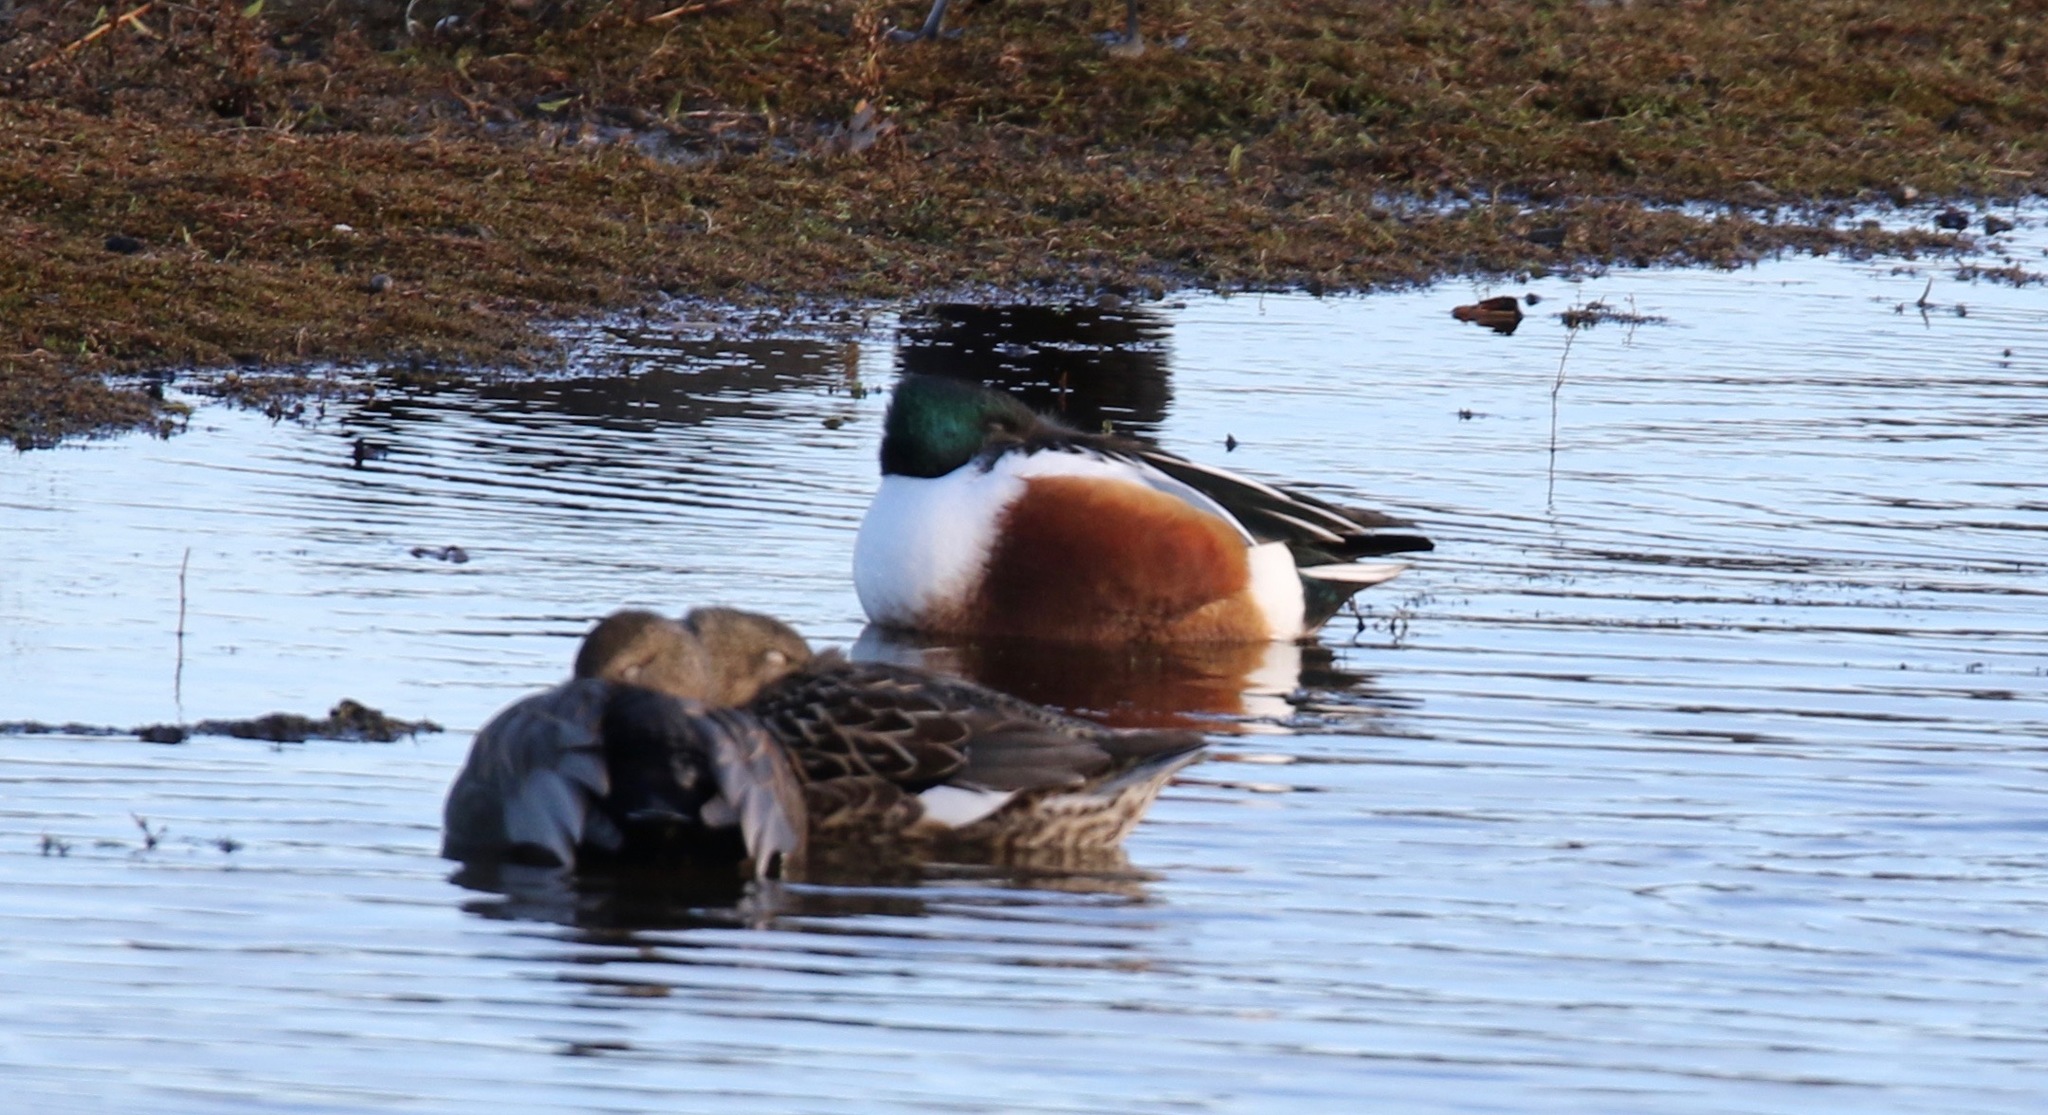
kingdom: Animalia
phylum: Chordata
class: Aves
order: Anseriformes
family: Anatidae
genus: Spatula
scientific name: Spatula clypeata
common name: Northern shoveler
